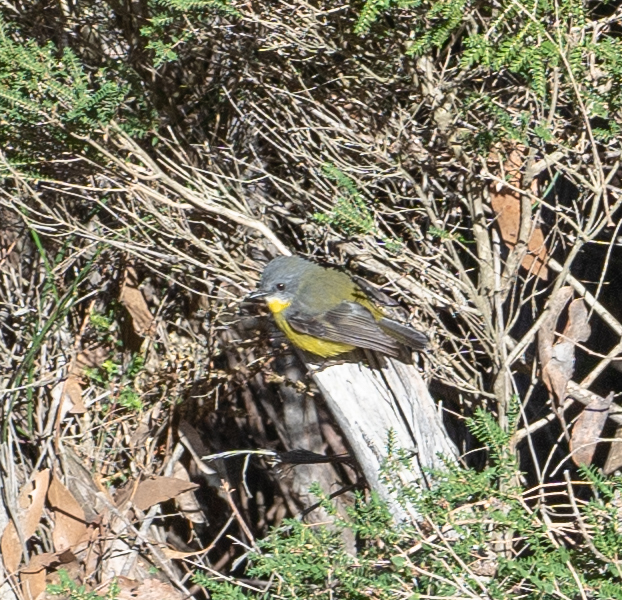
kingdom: Animalia
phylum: Chordata
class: Aves
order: Passeriformes
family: Petroicidae
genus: Eopsaltria
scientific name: Eopsaltria australis
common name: Eastern yellow robin
